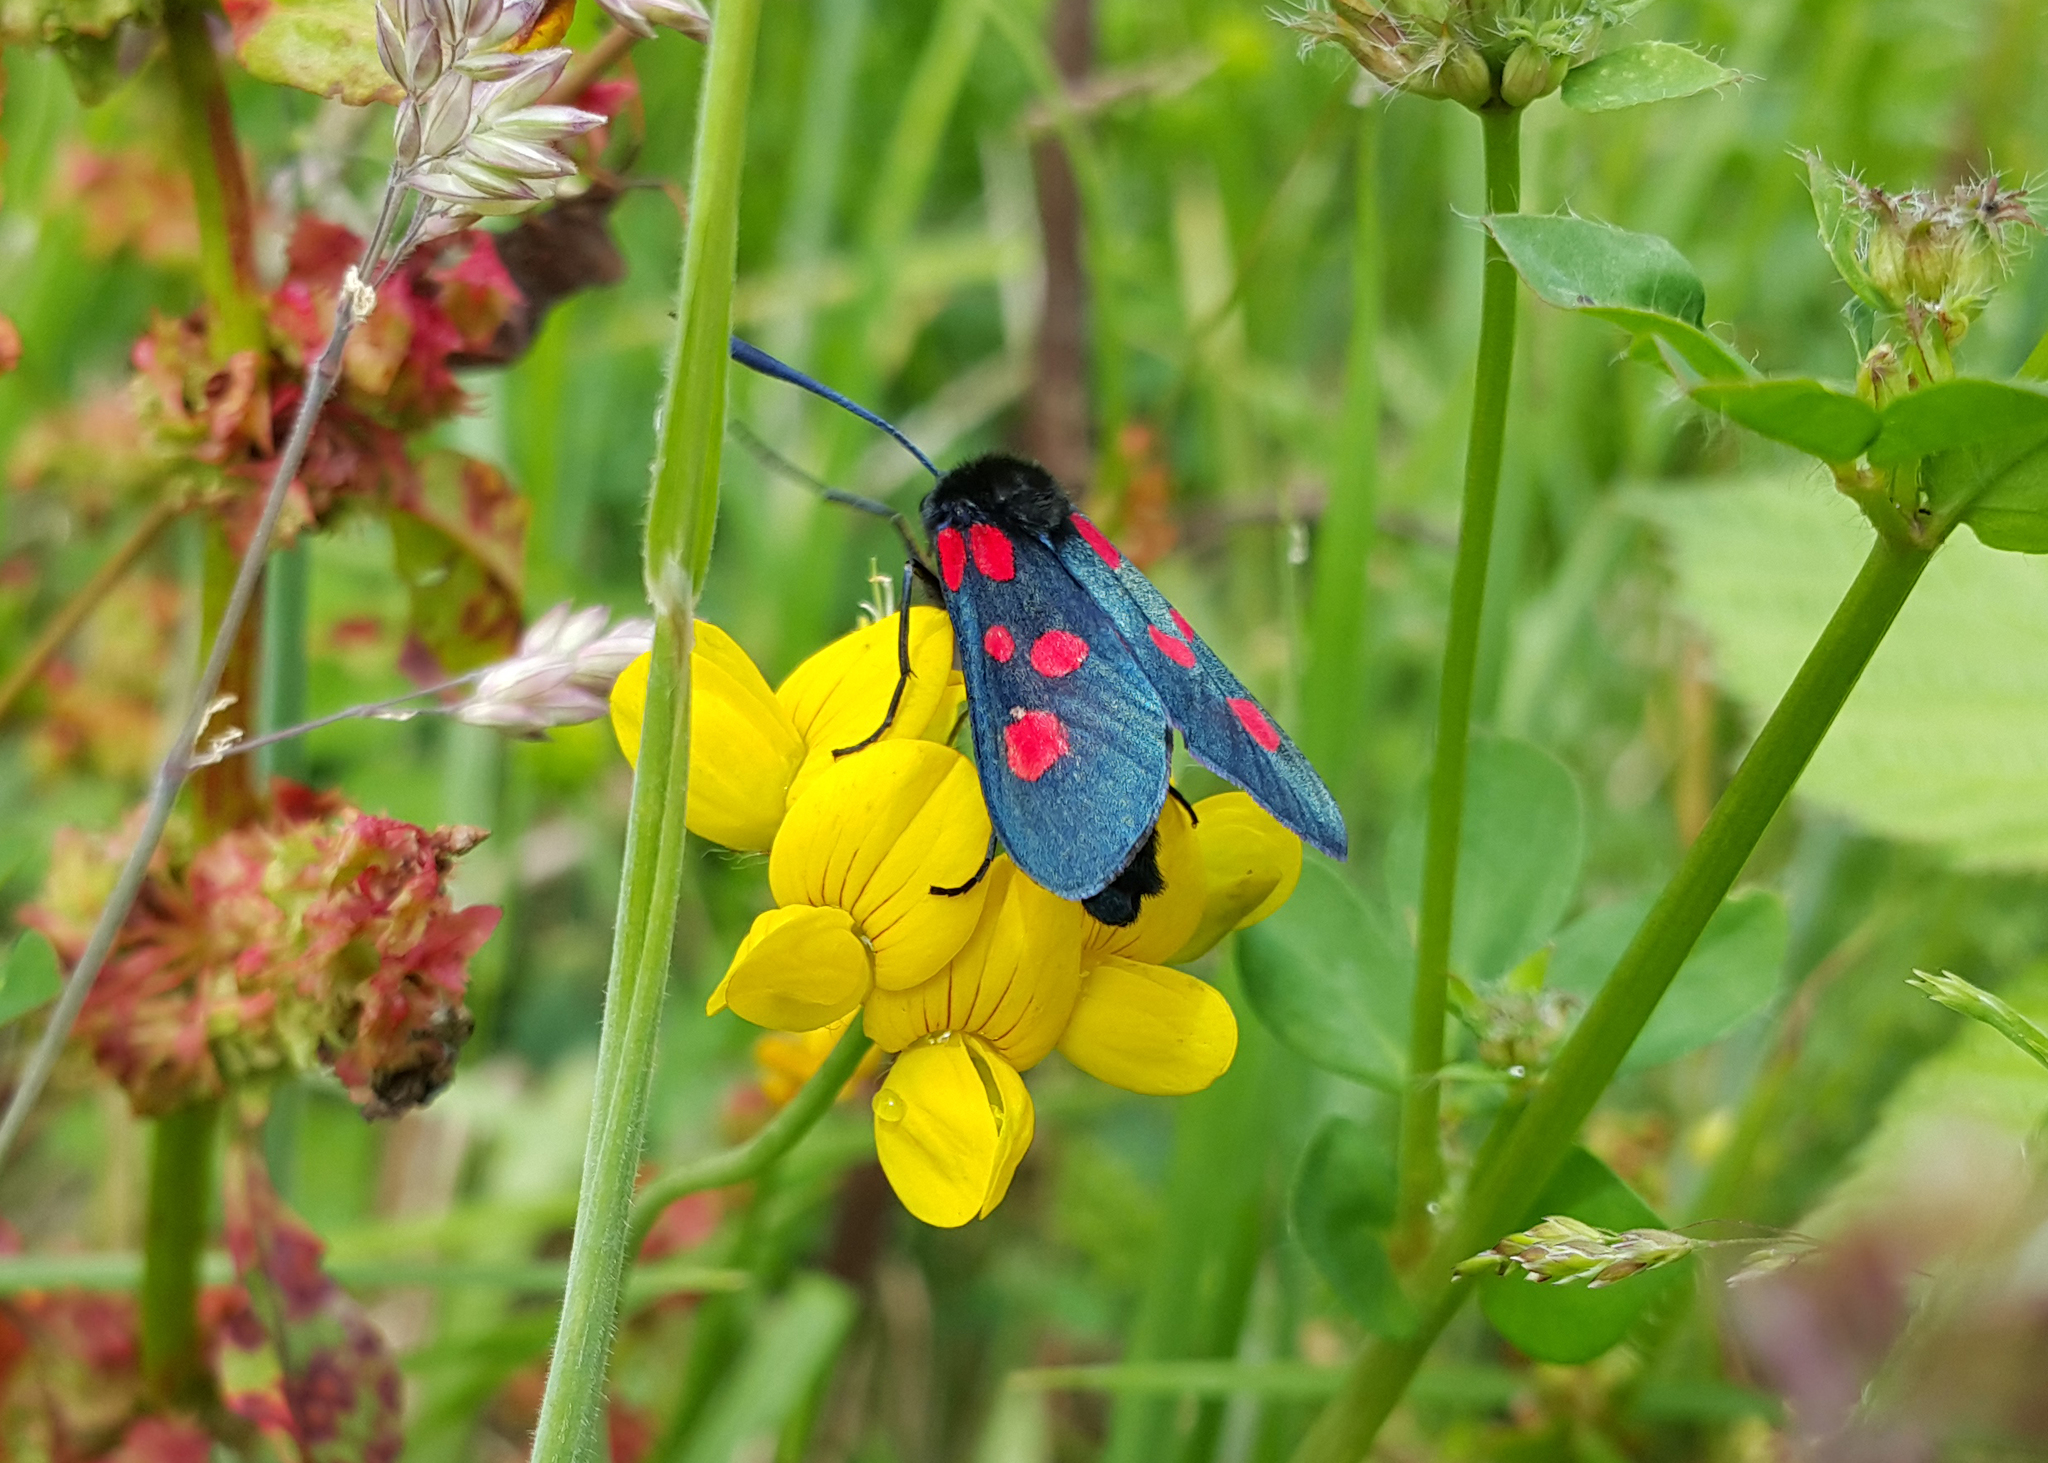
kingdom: Animalia
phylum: Arthropoda
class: Insecta
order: Lepidoptera
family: Zygaenidae
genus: Zygaena
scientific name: Zygaena trifolii
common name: Five-spot burnet
